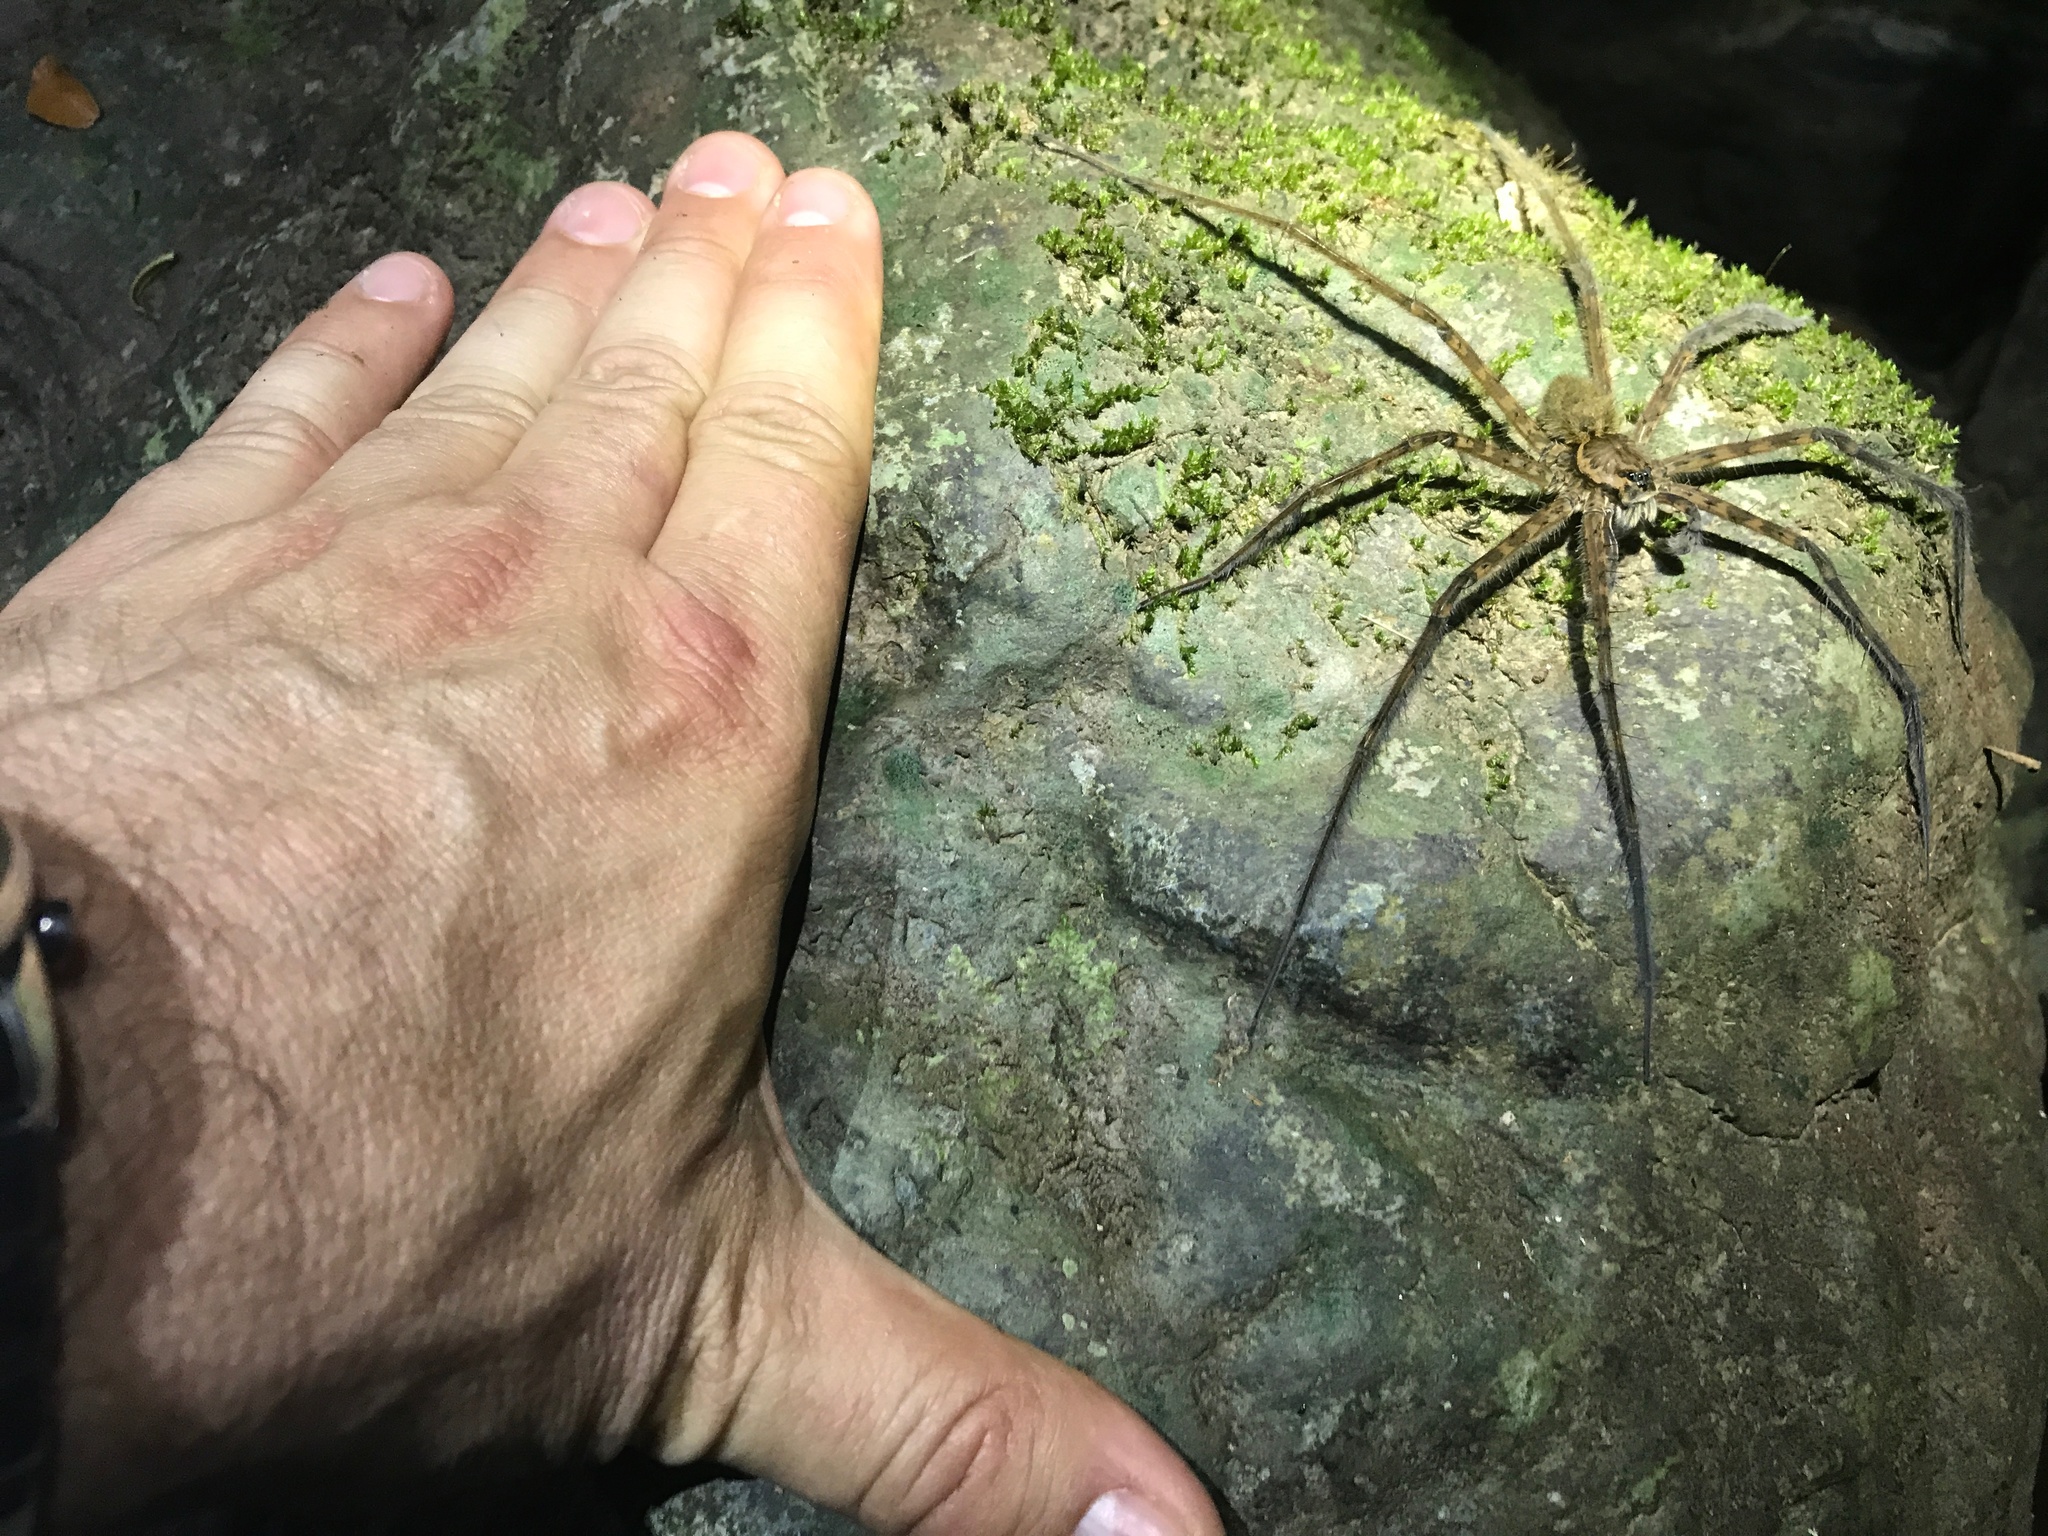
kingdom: Animalia
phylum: Arthropoda
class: Arachnida
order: Araneae
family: Trechaleidae
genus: Trechalea
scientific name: Trechalea extensa
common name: Long legged water spiders
